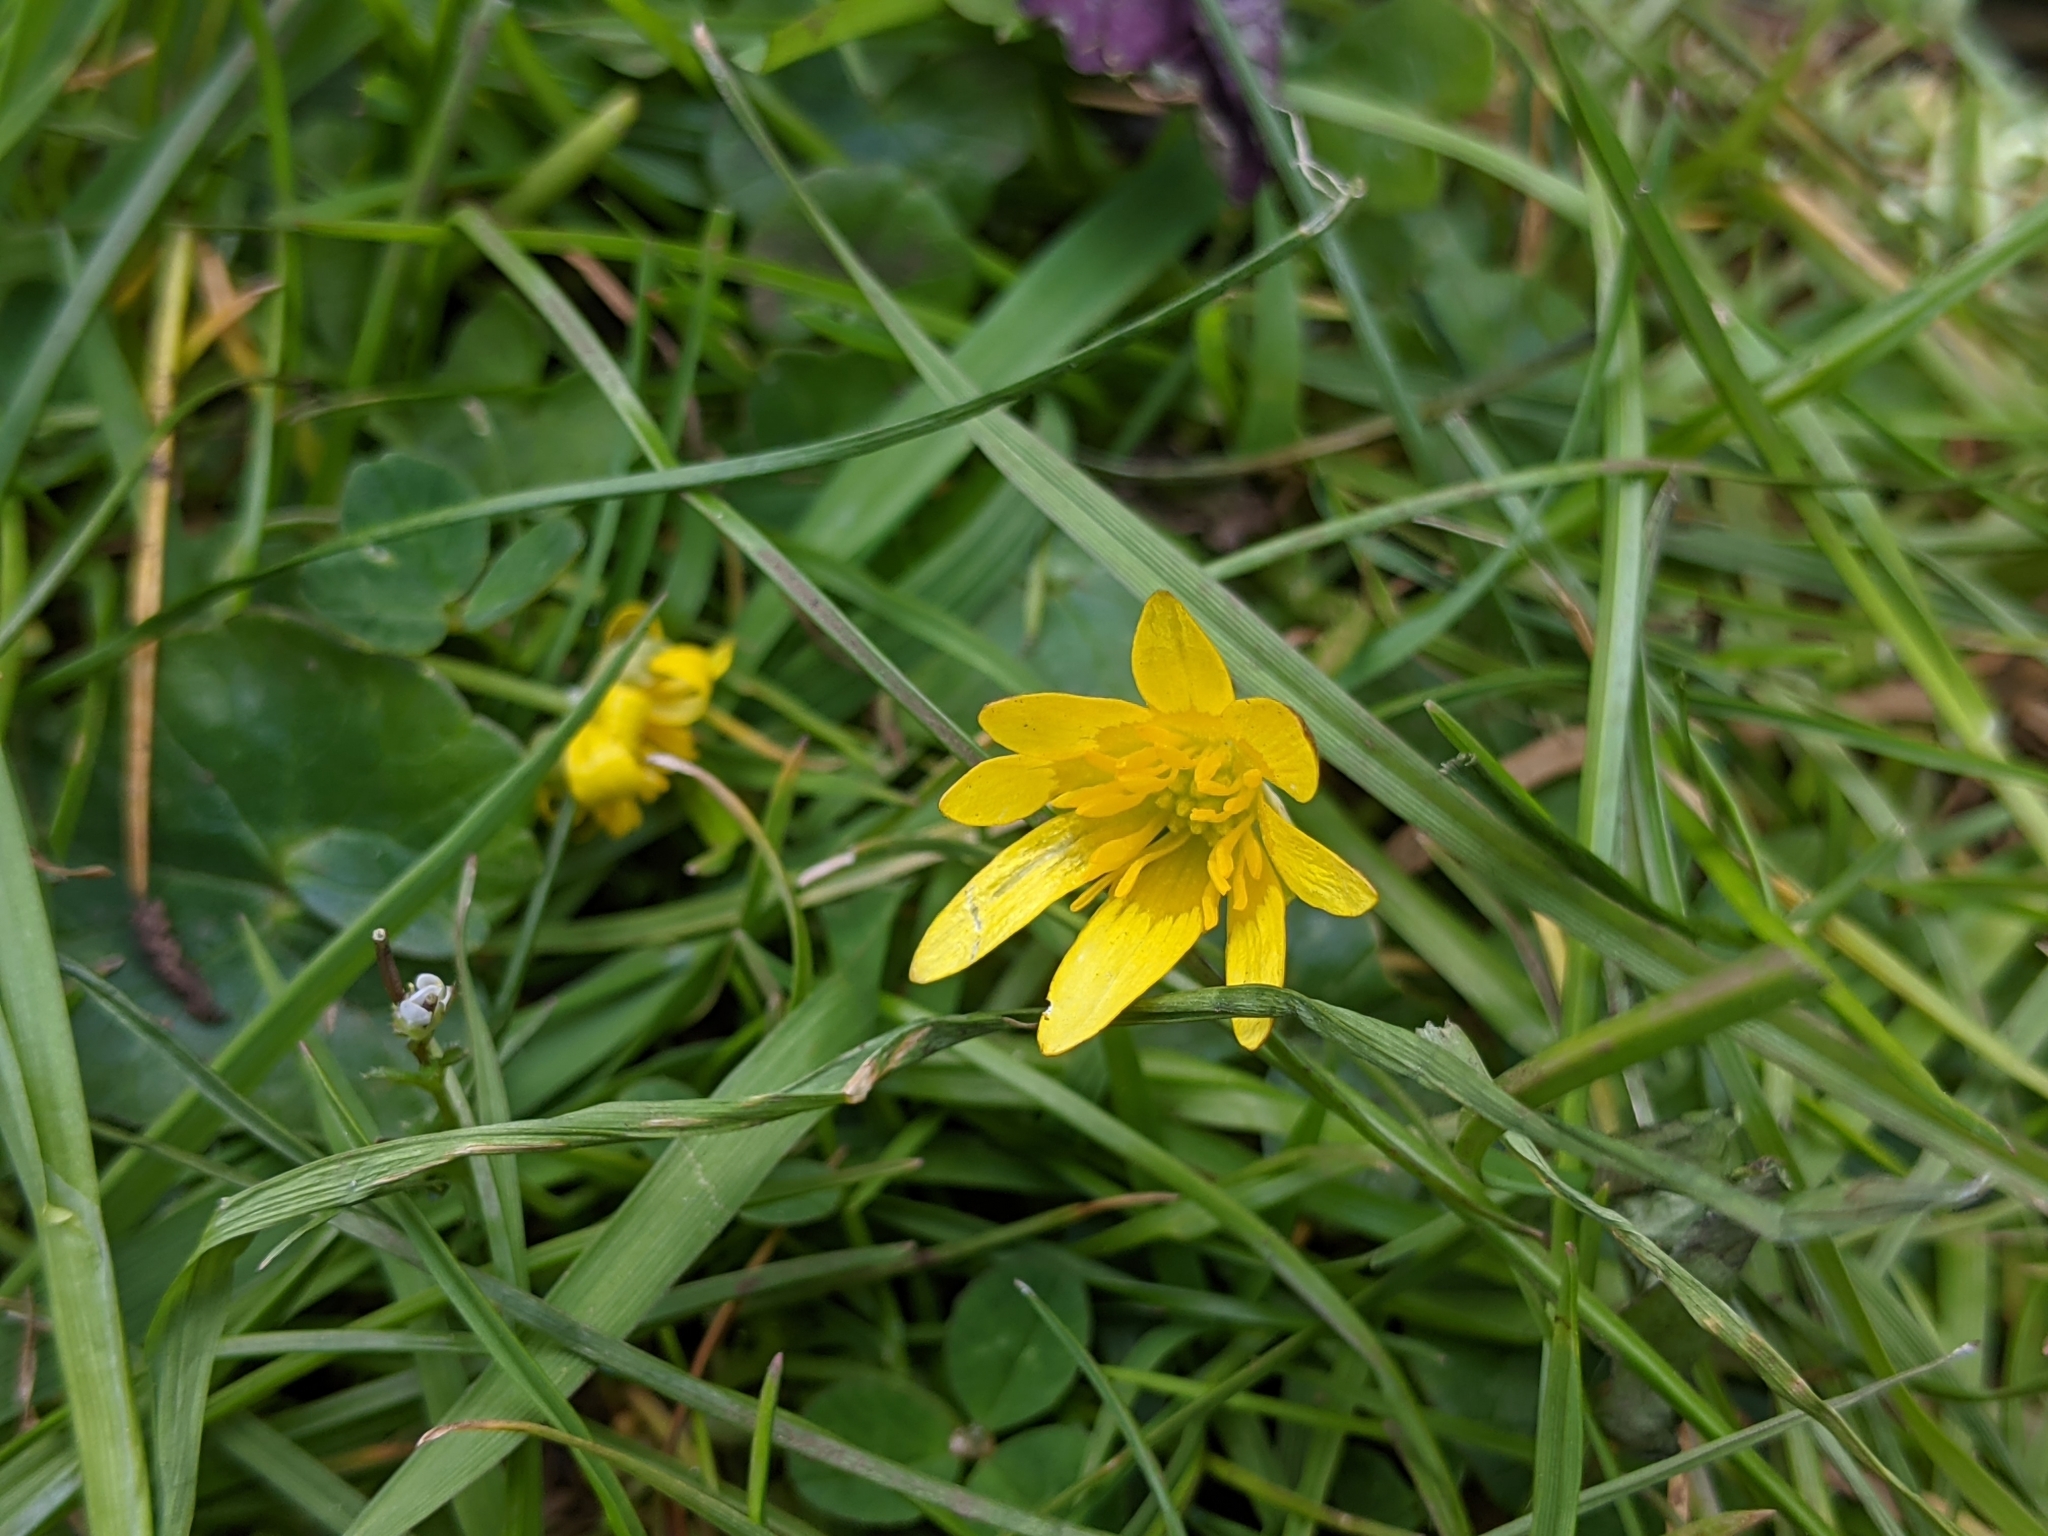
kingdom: Plantae
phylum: Tracheophyta
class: Magnoliopsida
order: Ranunculales
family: Ranunculaceae
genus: Ficaria
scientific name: Ficaria verna
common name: Lesser celandine
